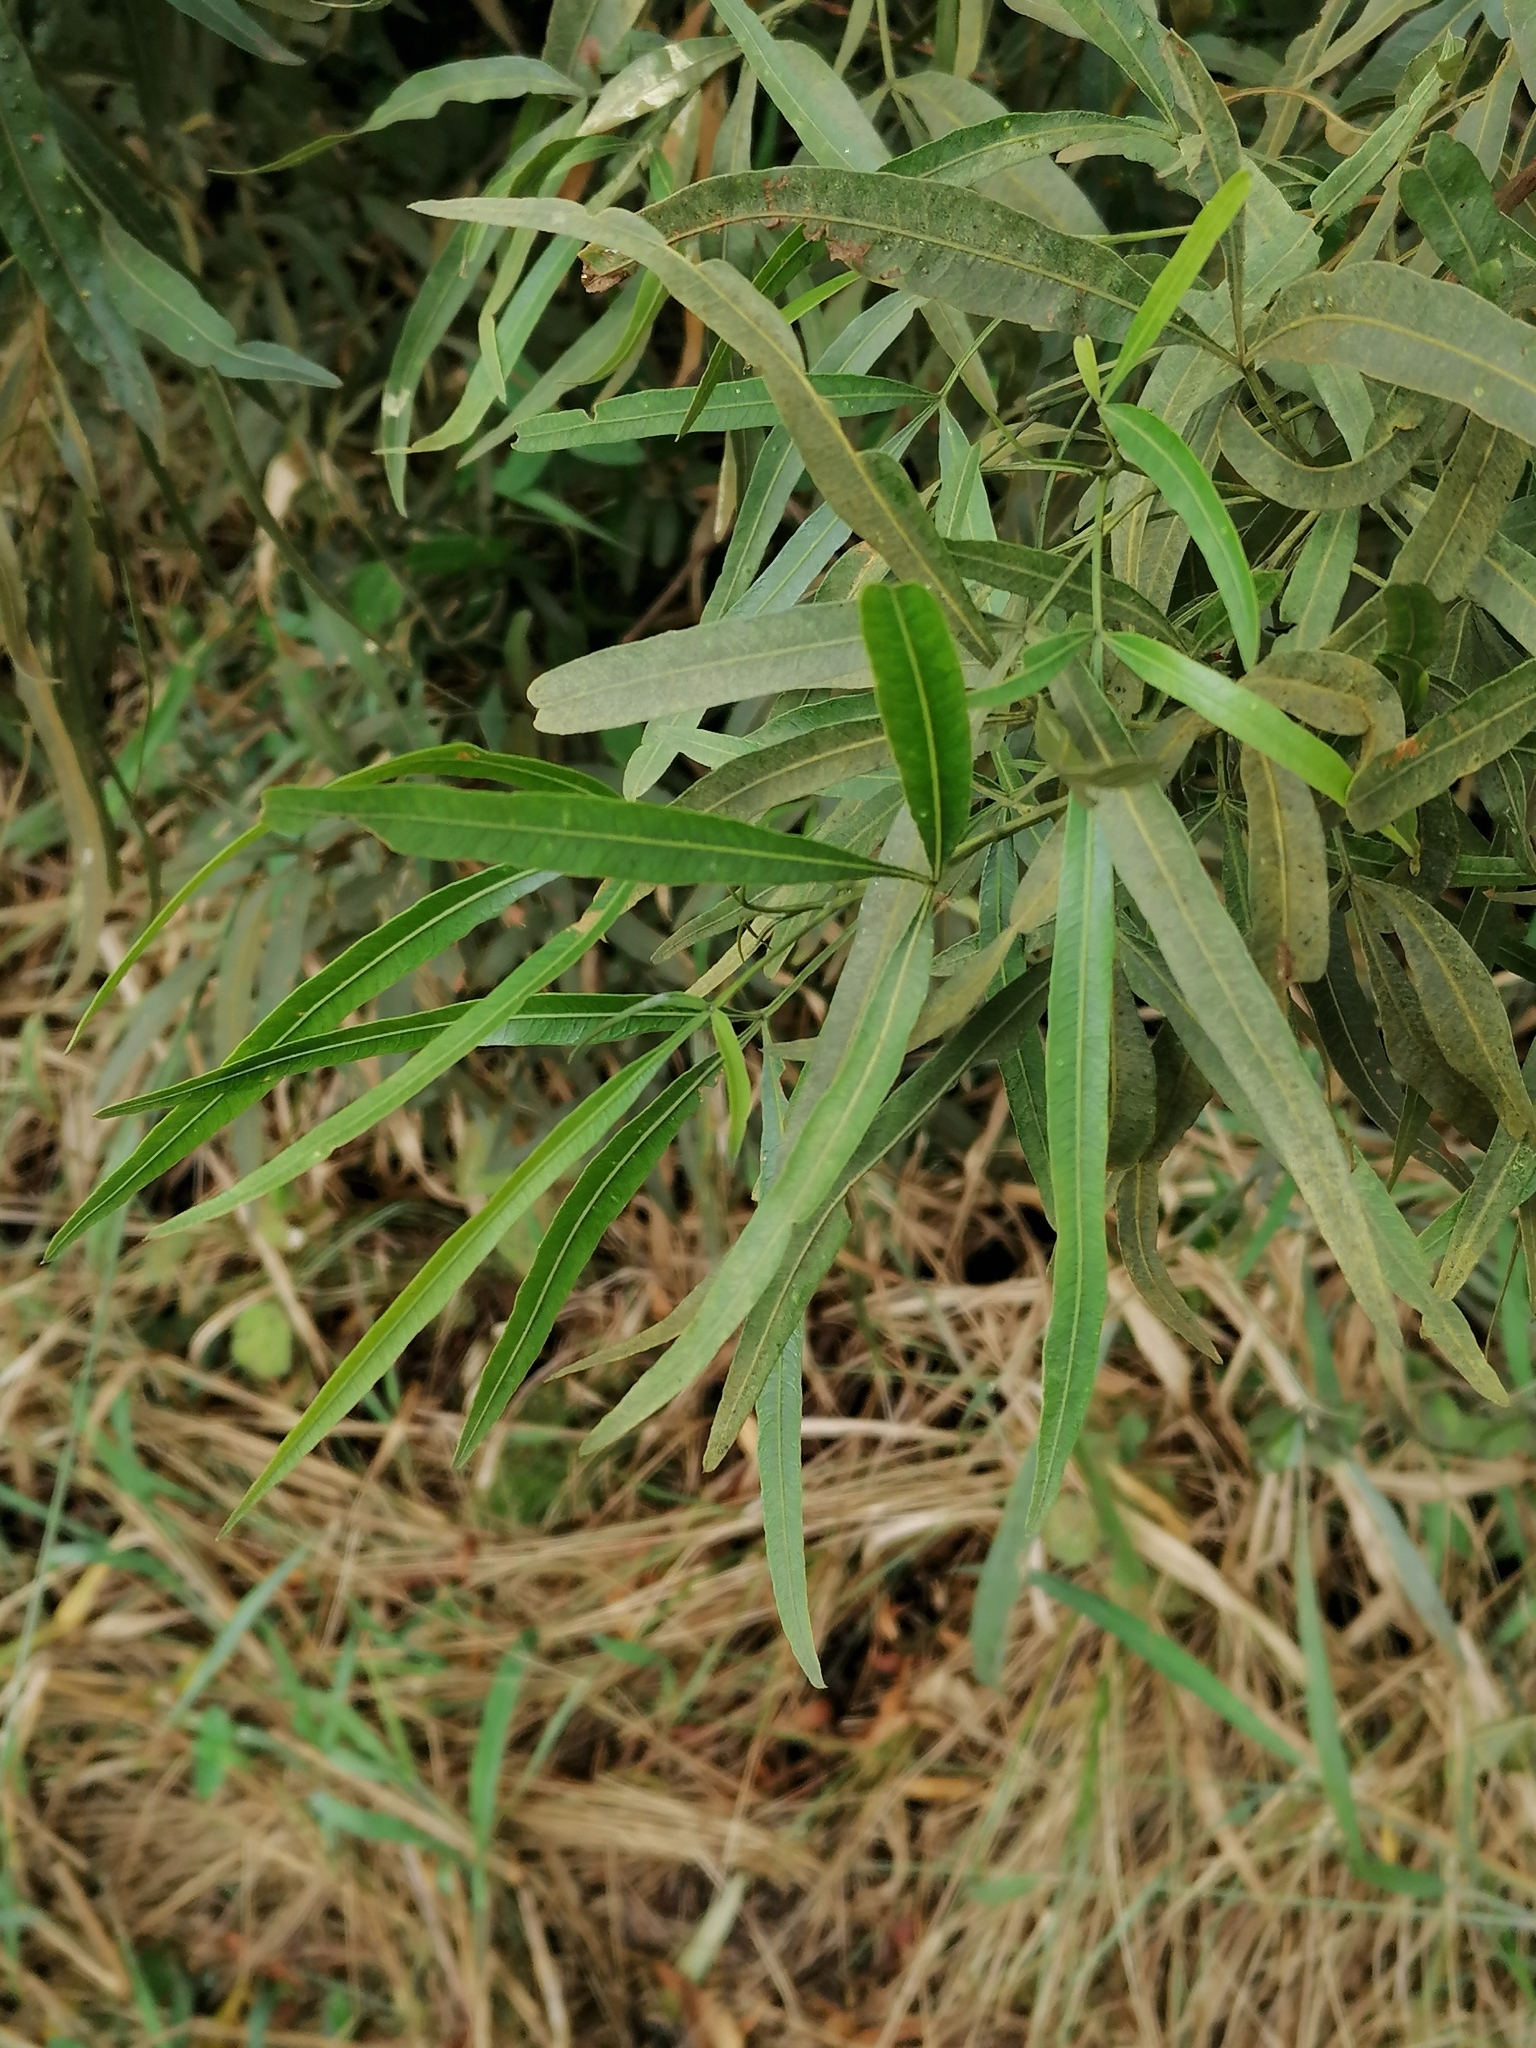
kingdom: Plantae
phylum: Tracheophyta
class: Magnoliopsida
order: Sapindales
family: Anacardiaceae
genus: Searsia
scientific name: Searsia lancea
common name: Cashew
